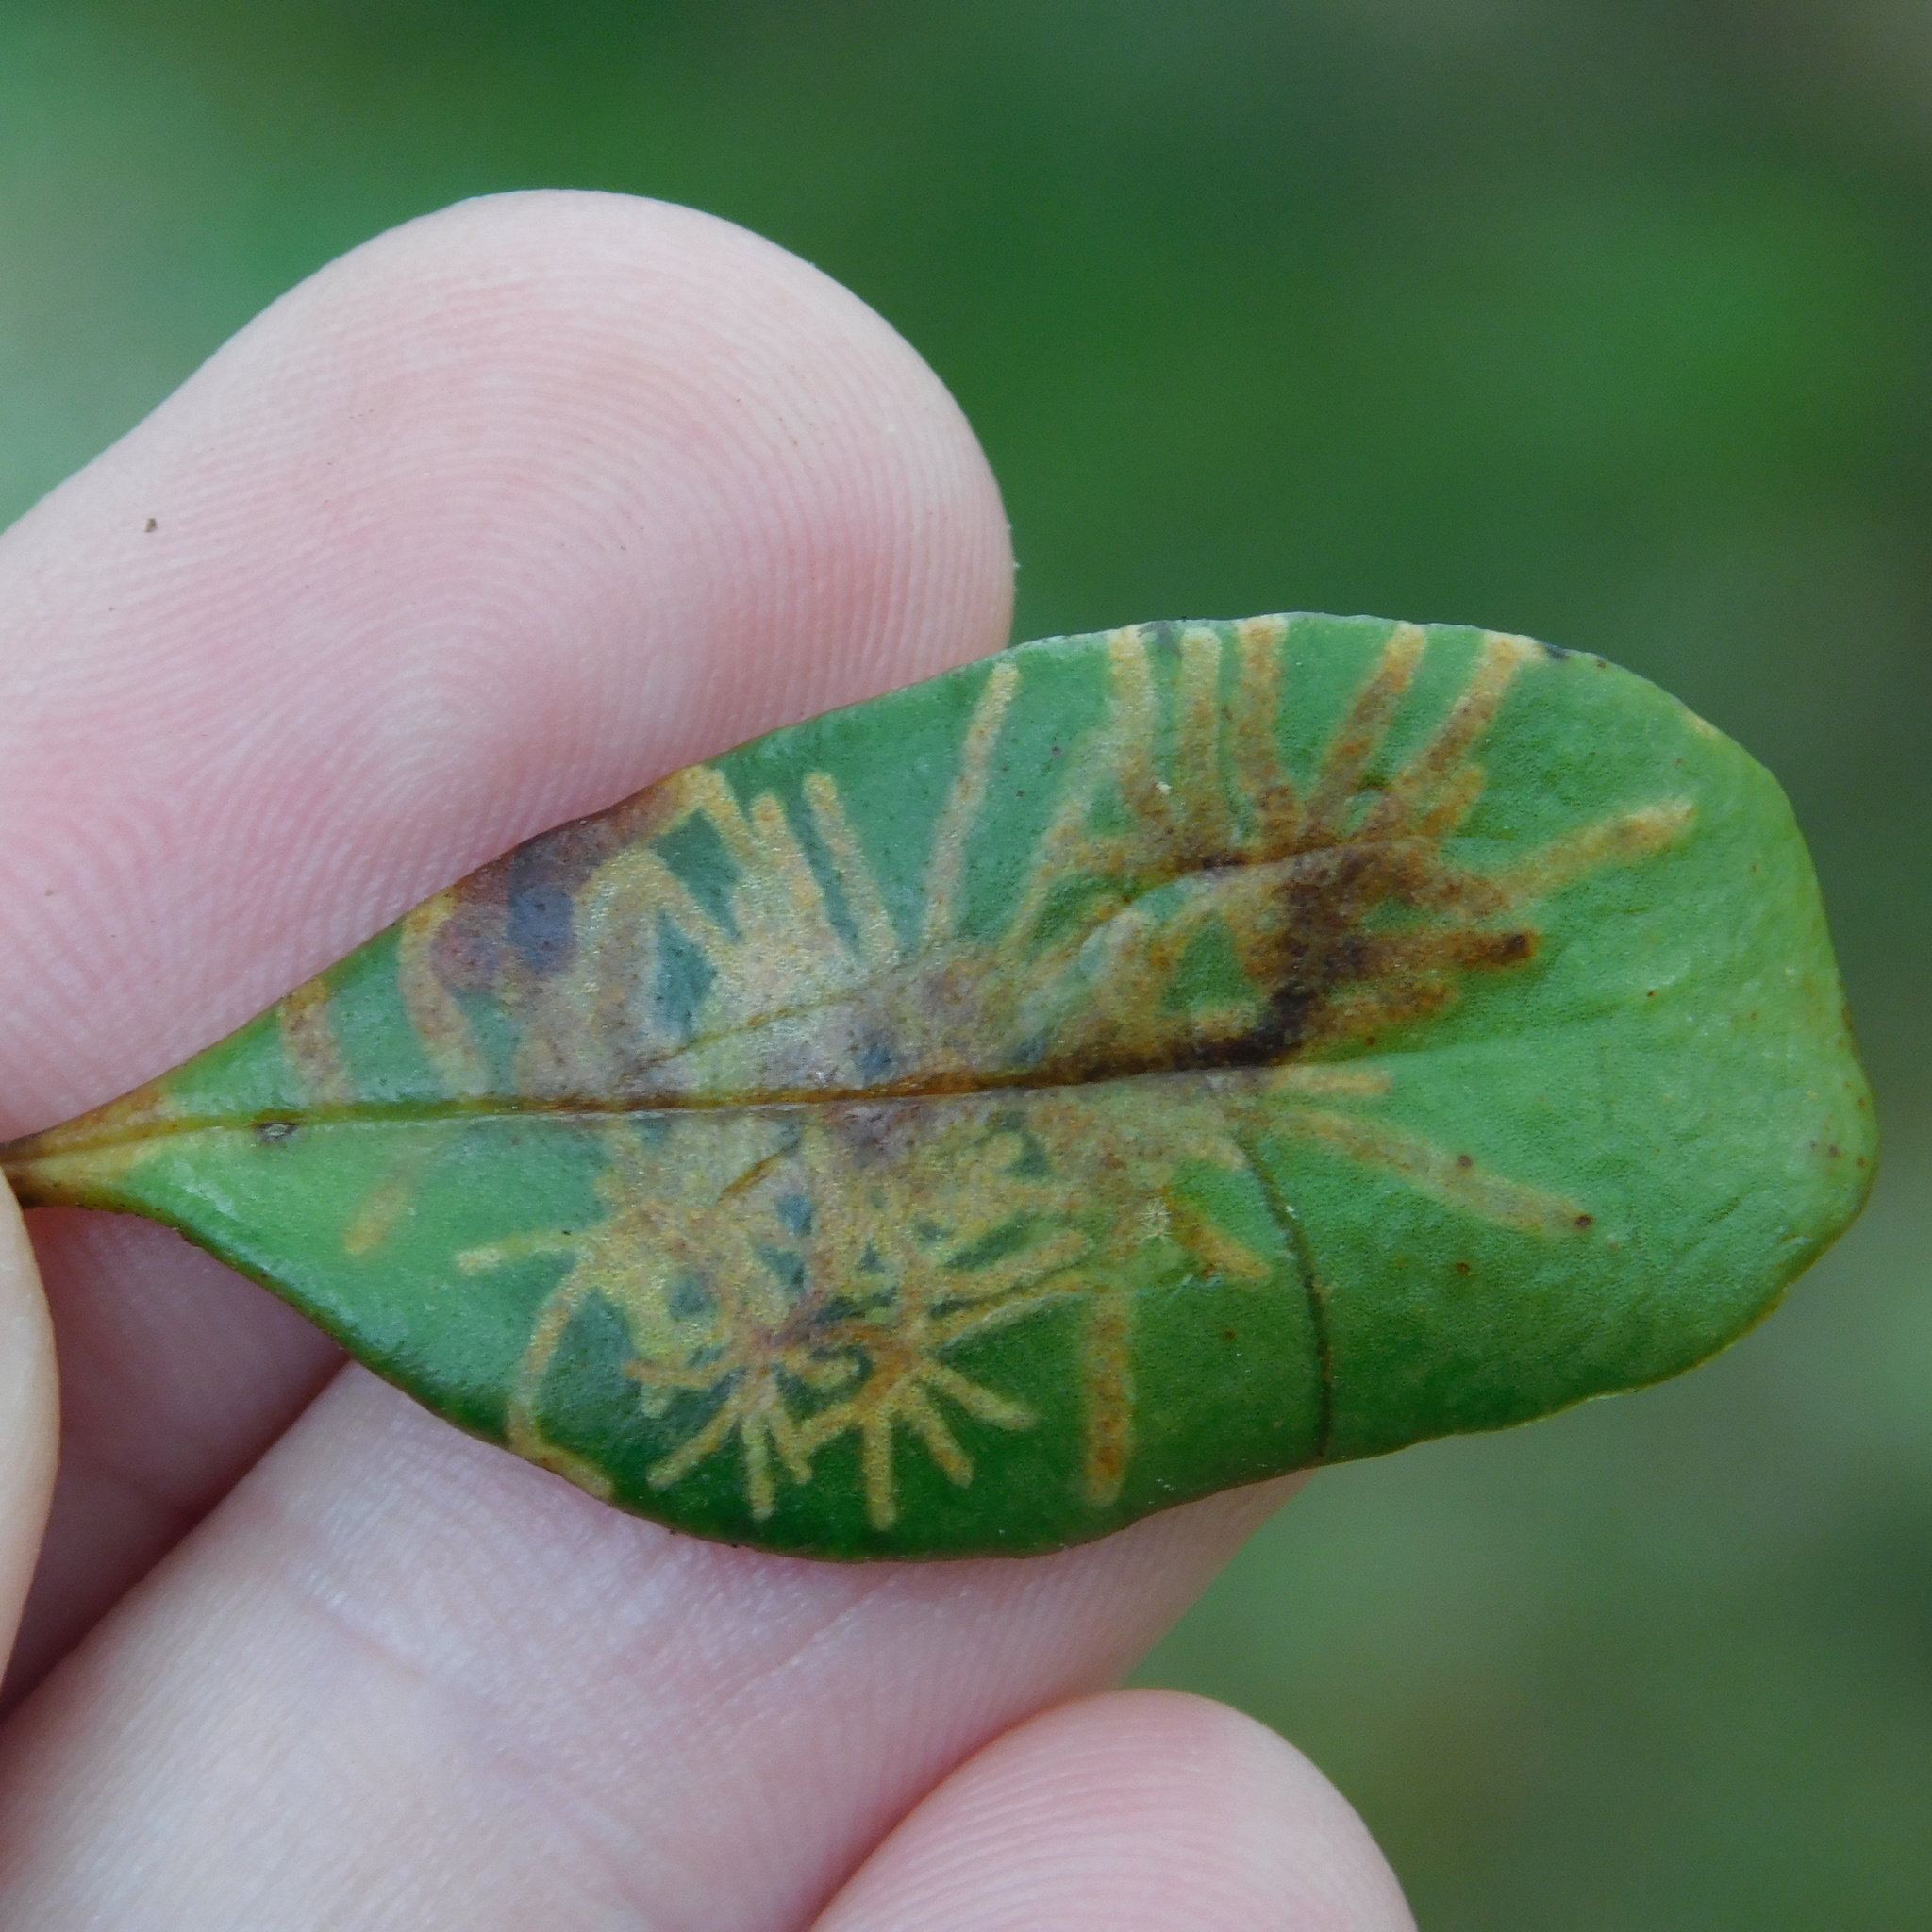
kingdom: Animalia
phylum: Arthropoda
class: Insecta
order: Lepidoptera
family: Tortricidae
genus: Philocryptica
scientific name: Philocryptica polypodii
